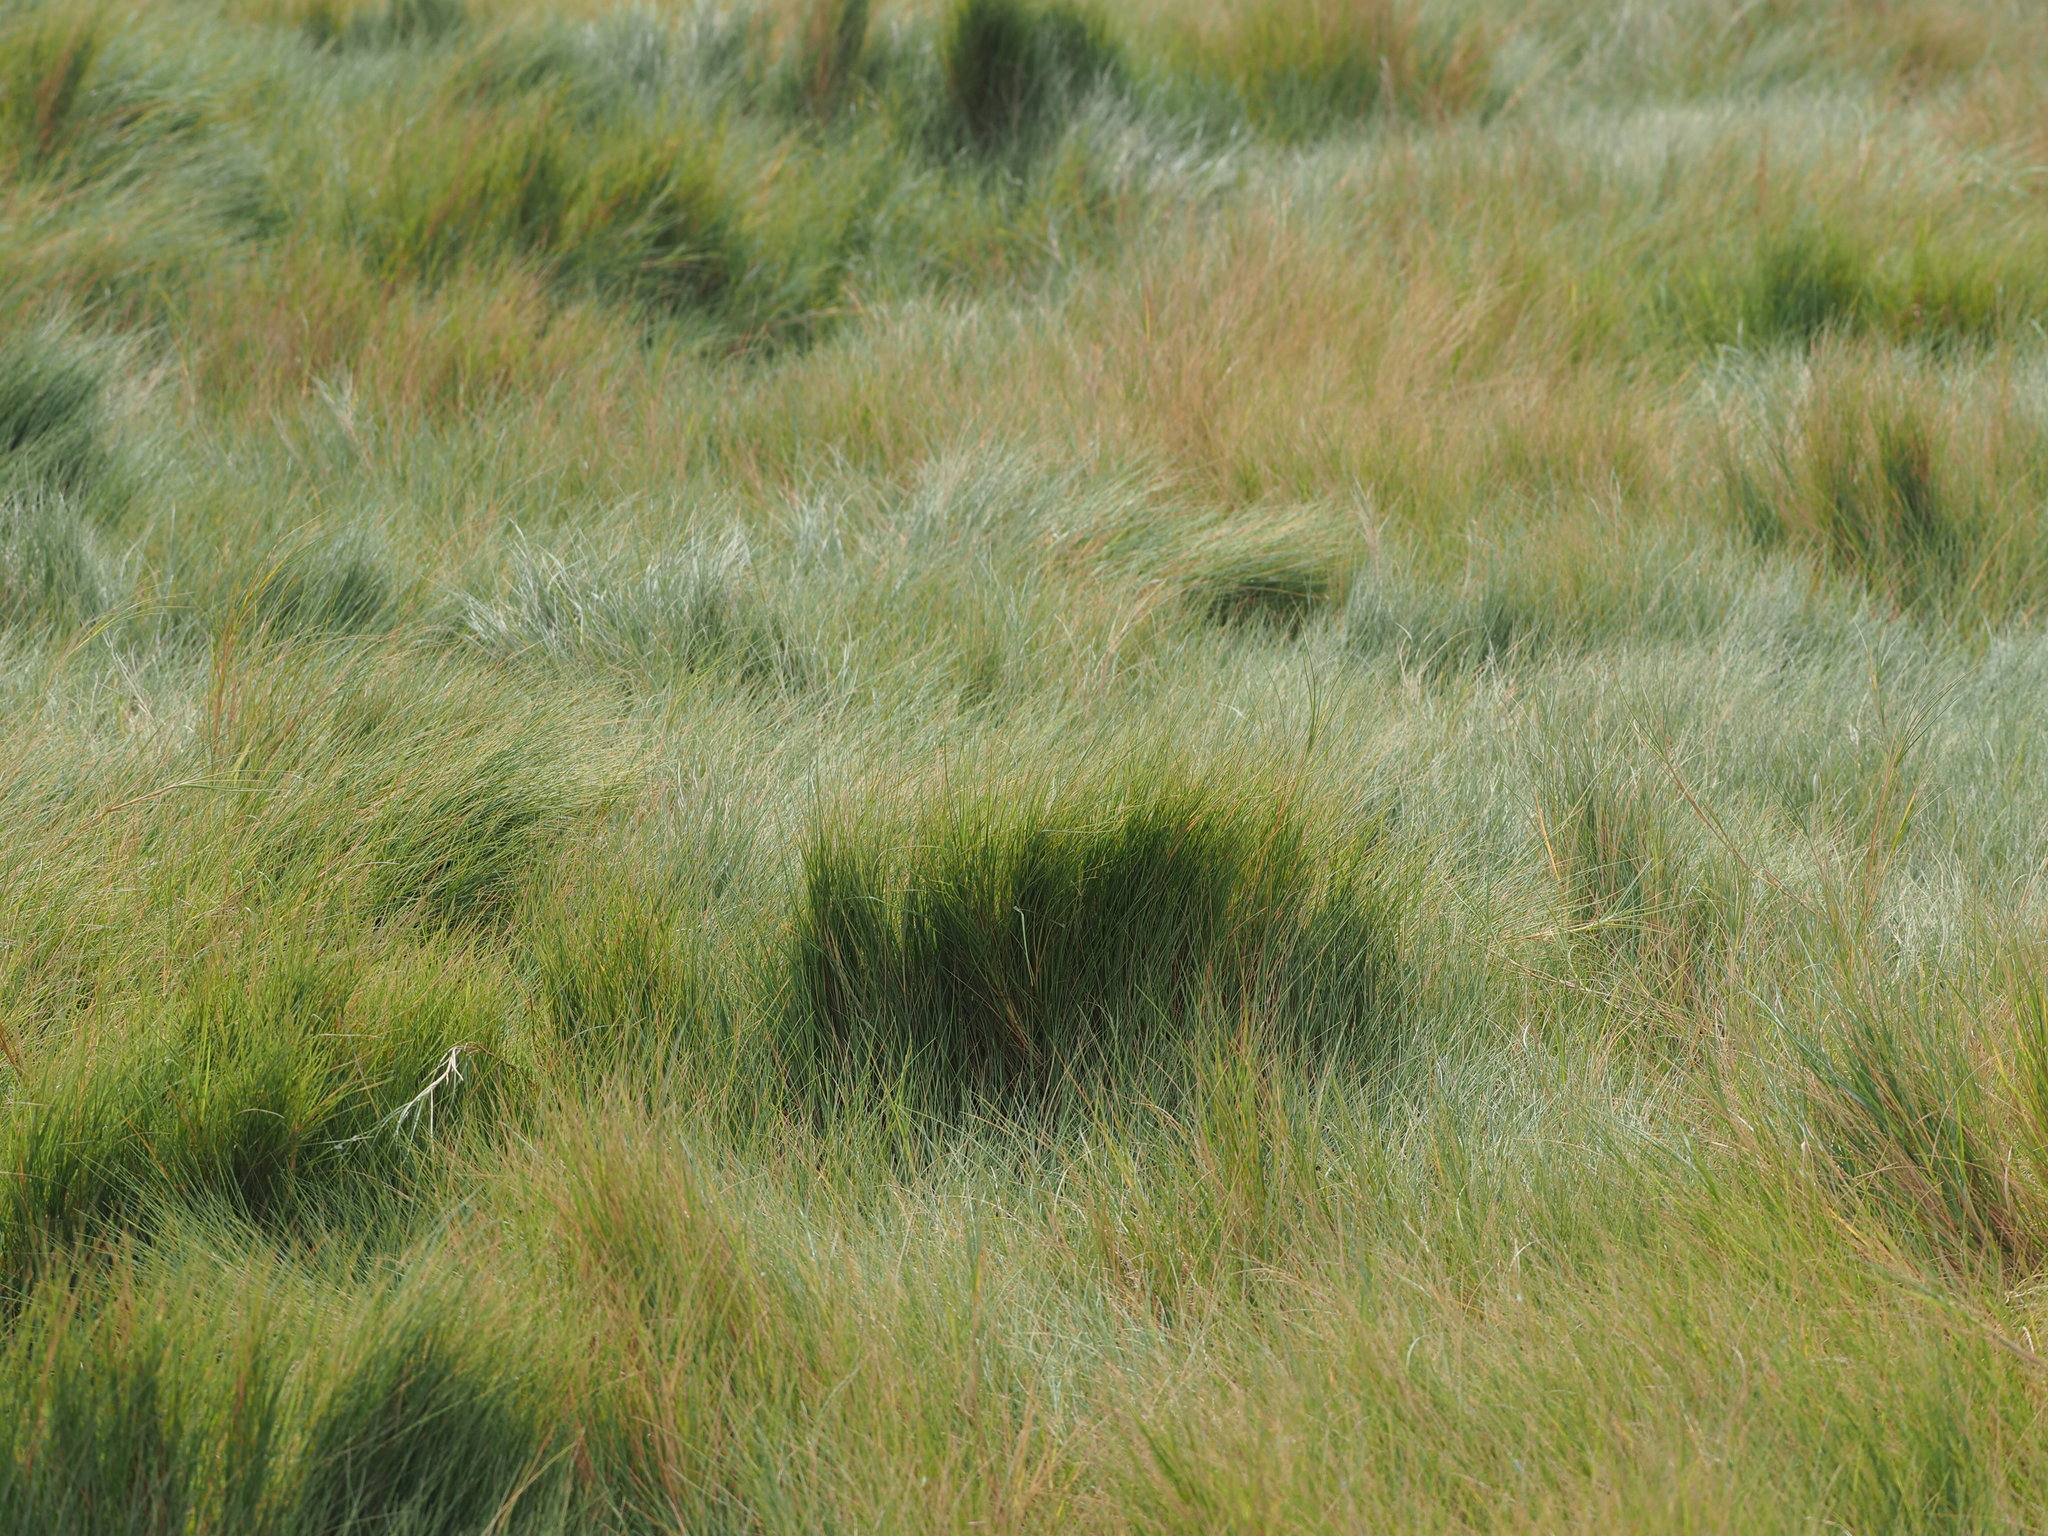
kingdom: Plantae
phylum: Tracheophyta
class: Liliopsida
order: Poales
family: Poaceae
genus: Sporobolus
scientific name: Sporobolus virginicus
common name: Beach dropseed
